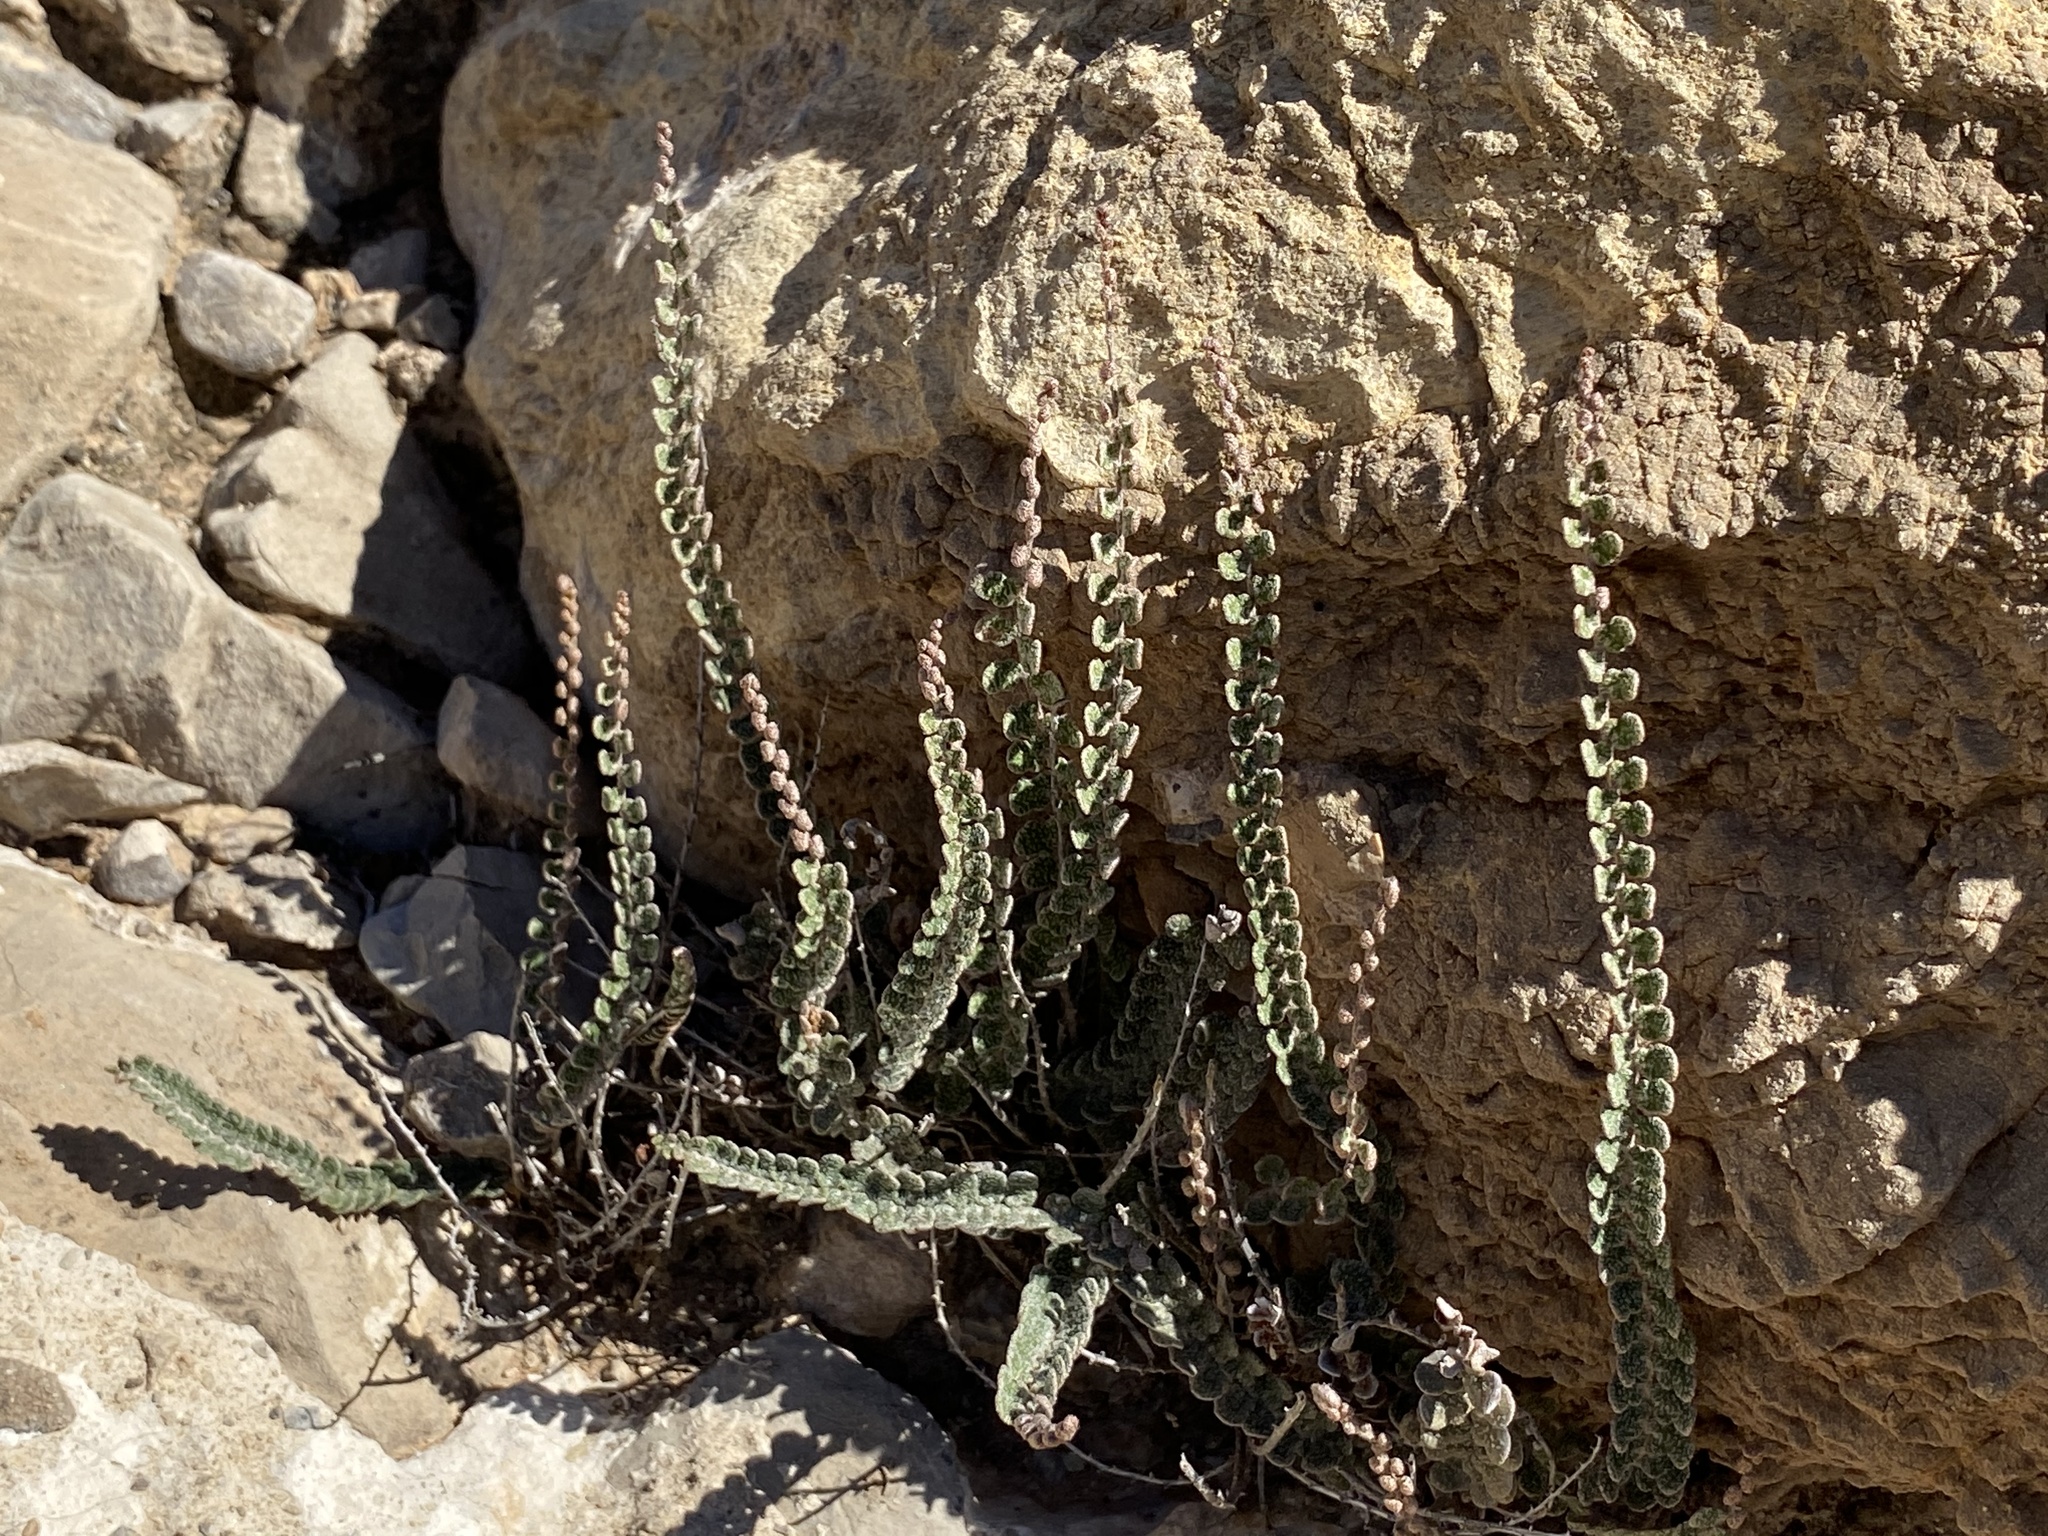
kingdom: Plantae
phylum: Tracheophyta
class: Polypodiopsida
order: Polypodiales
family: Pteridaceae
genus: Astrolepis
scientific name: Astrolepis cochisensis
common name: Scaly cloak fern
